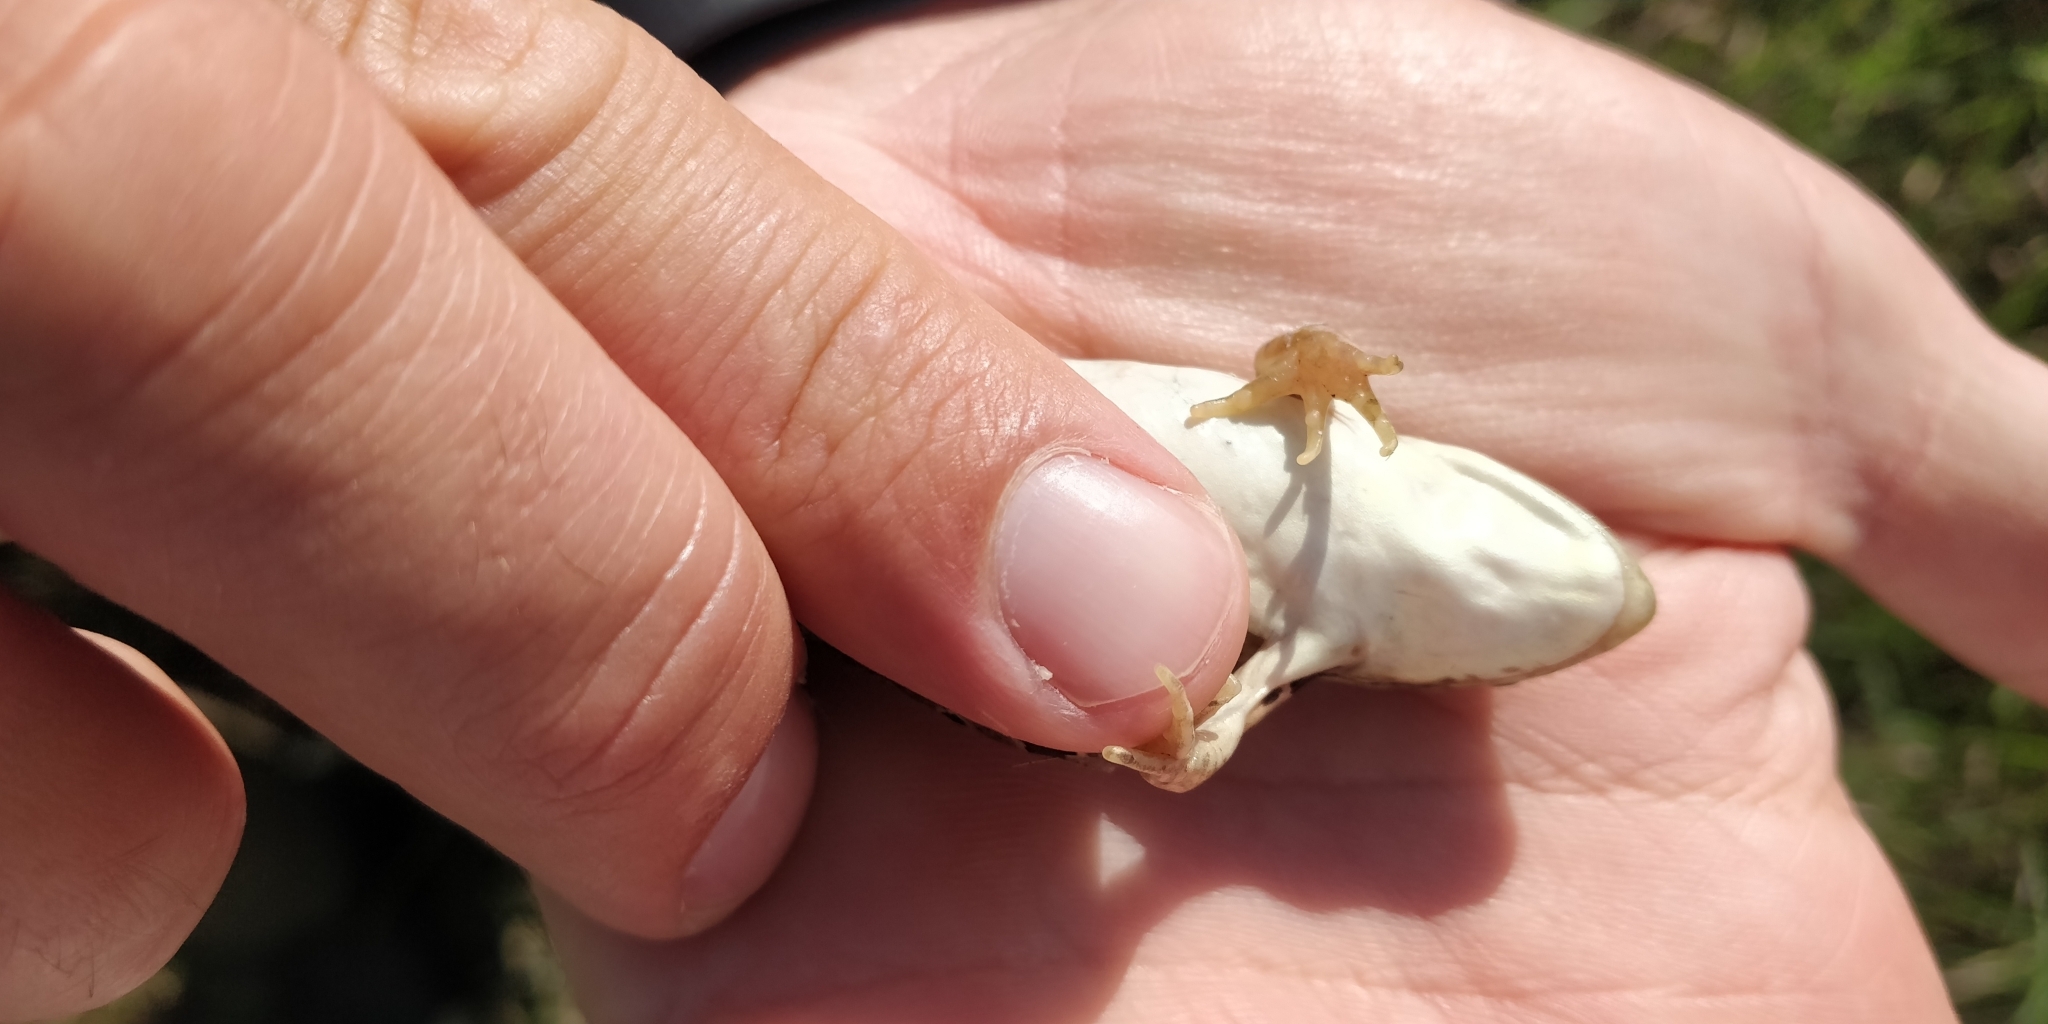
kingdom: Animalia
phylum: Chordata
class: Amphibia
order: Anura
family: Ranidae
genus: Lithobates
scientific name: Lithobates pipiens
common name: Northern leopard frog
